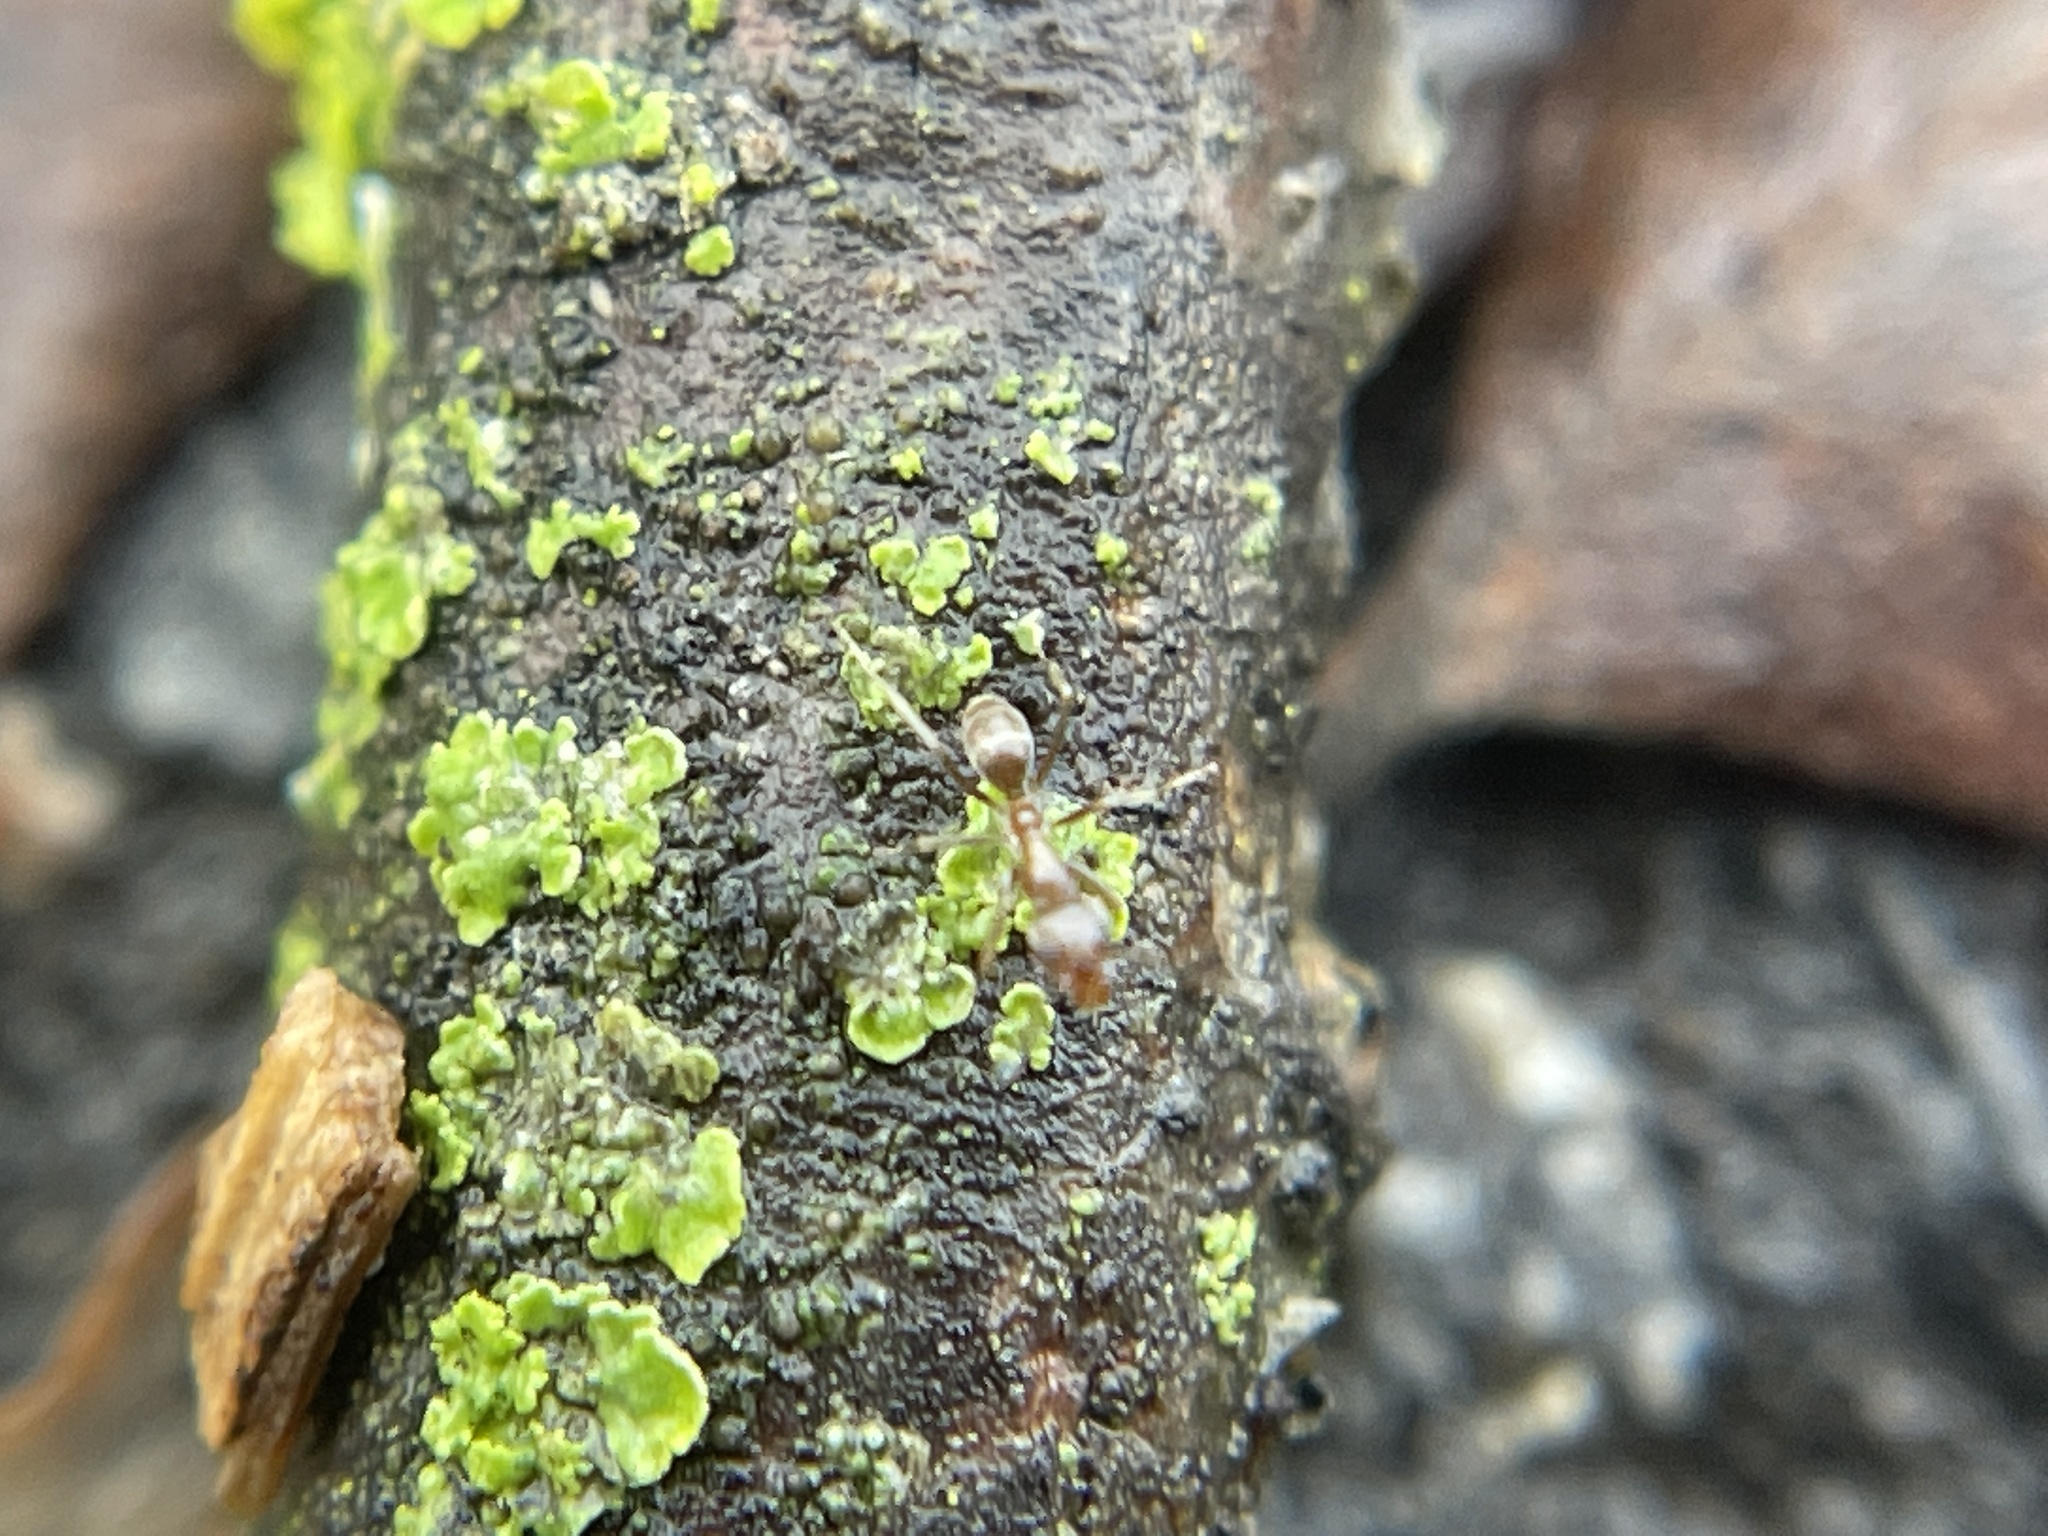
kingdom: Animalia
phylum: Arthropoda
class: Insecta
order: Hymenoptera
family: Formicidae
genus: Linepithema
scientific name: Linepithema humile
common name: Argentine ant
